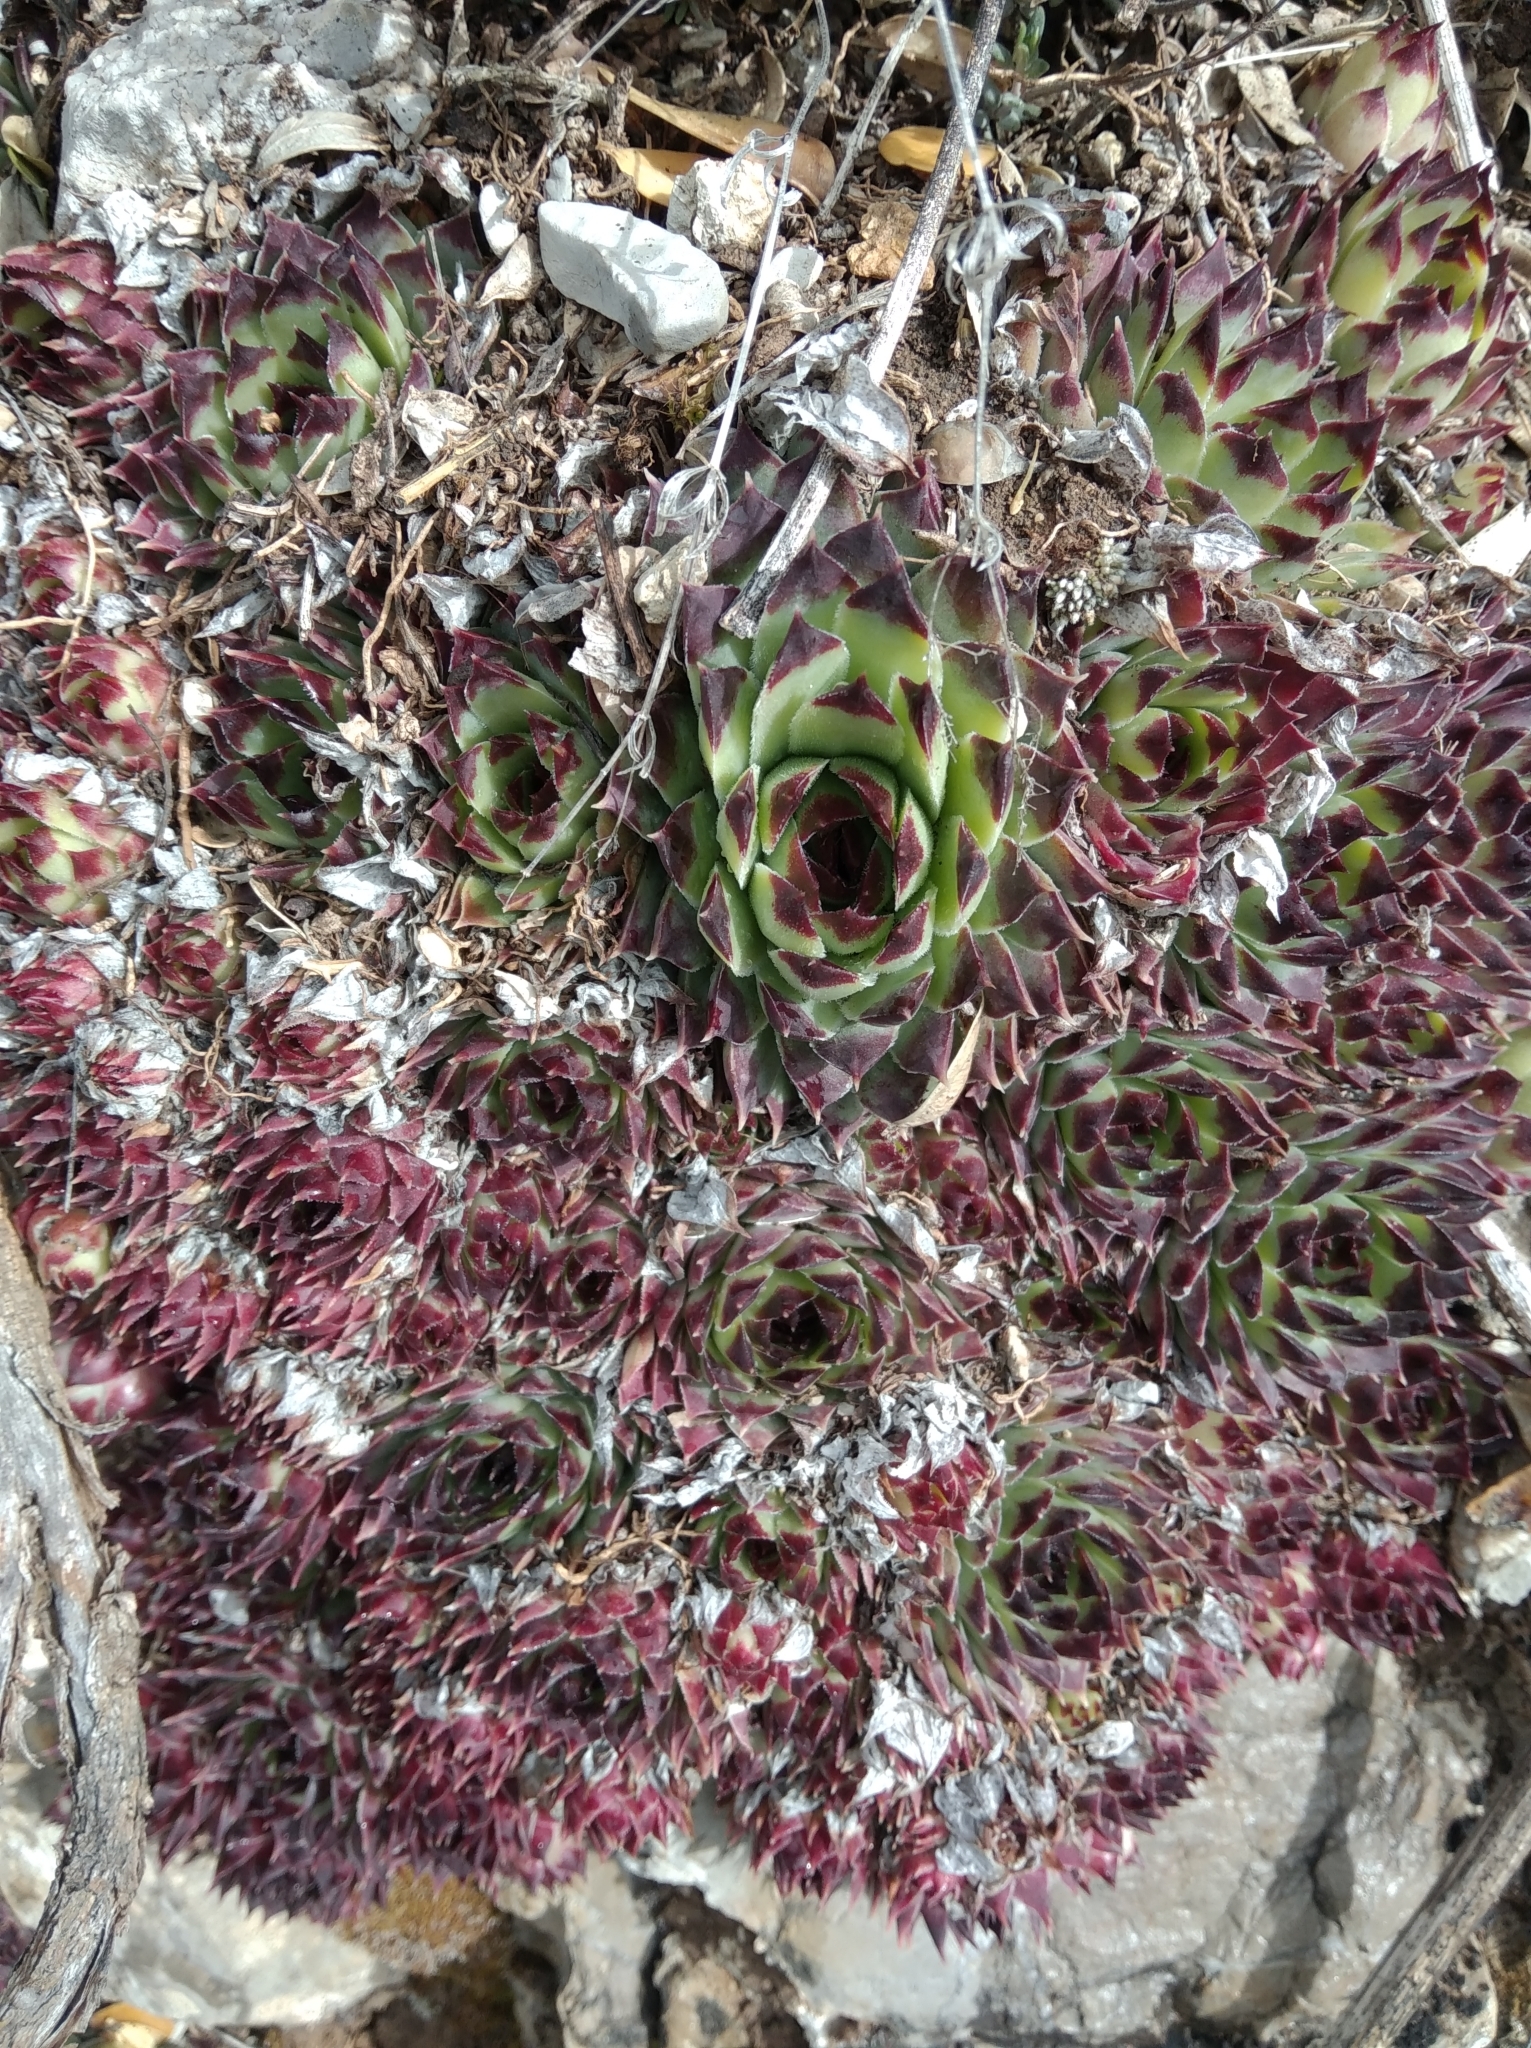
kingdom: Plantae
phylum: Tracheophyta
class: Magnoliopsida
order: Saxifragales
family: Crassulaceae
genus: Sempervivum
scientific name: Sempervivum calcareum
